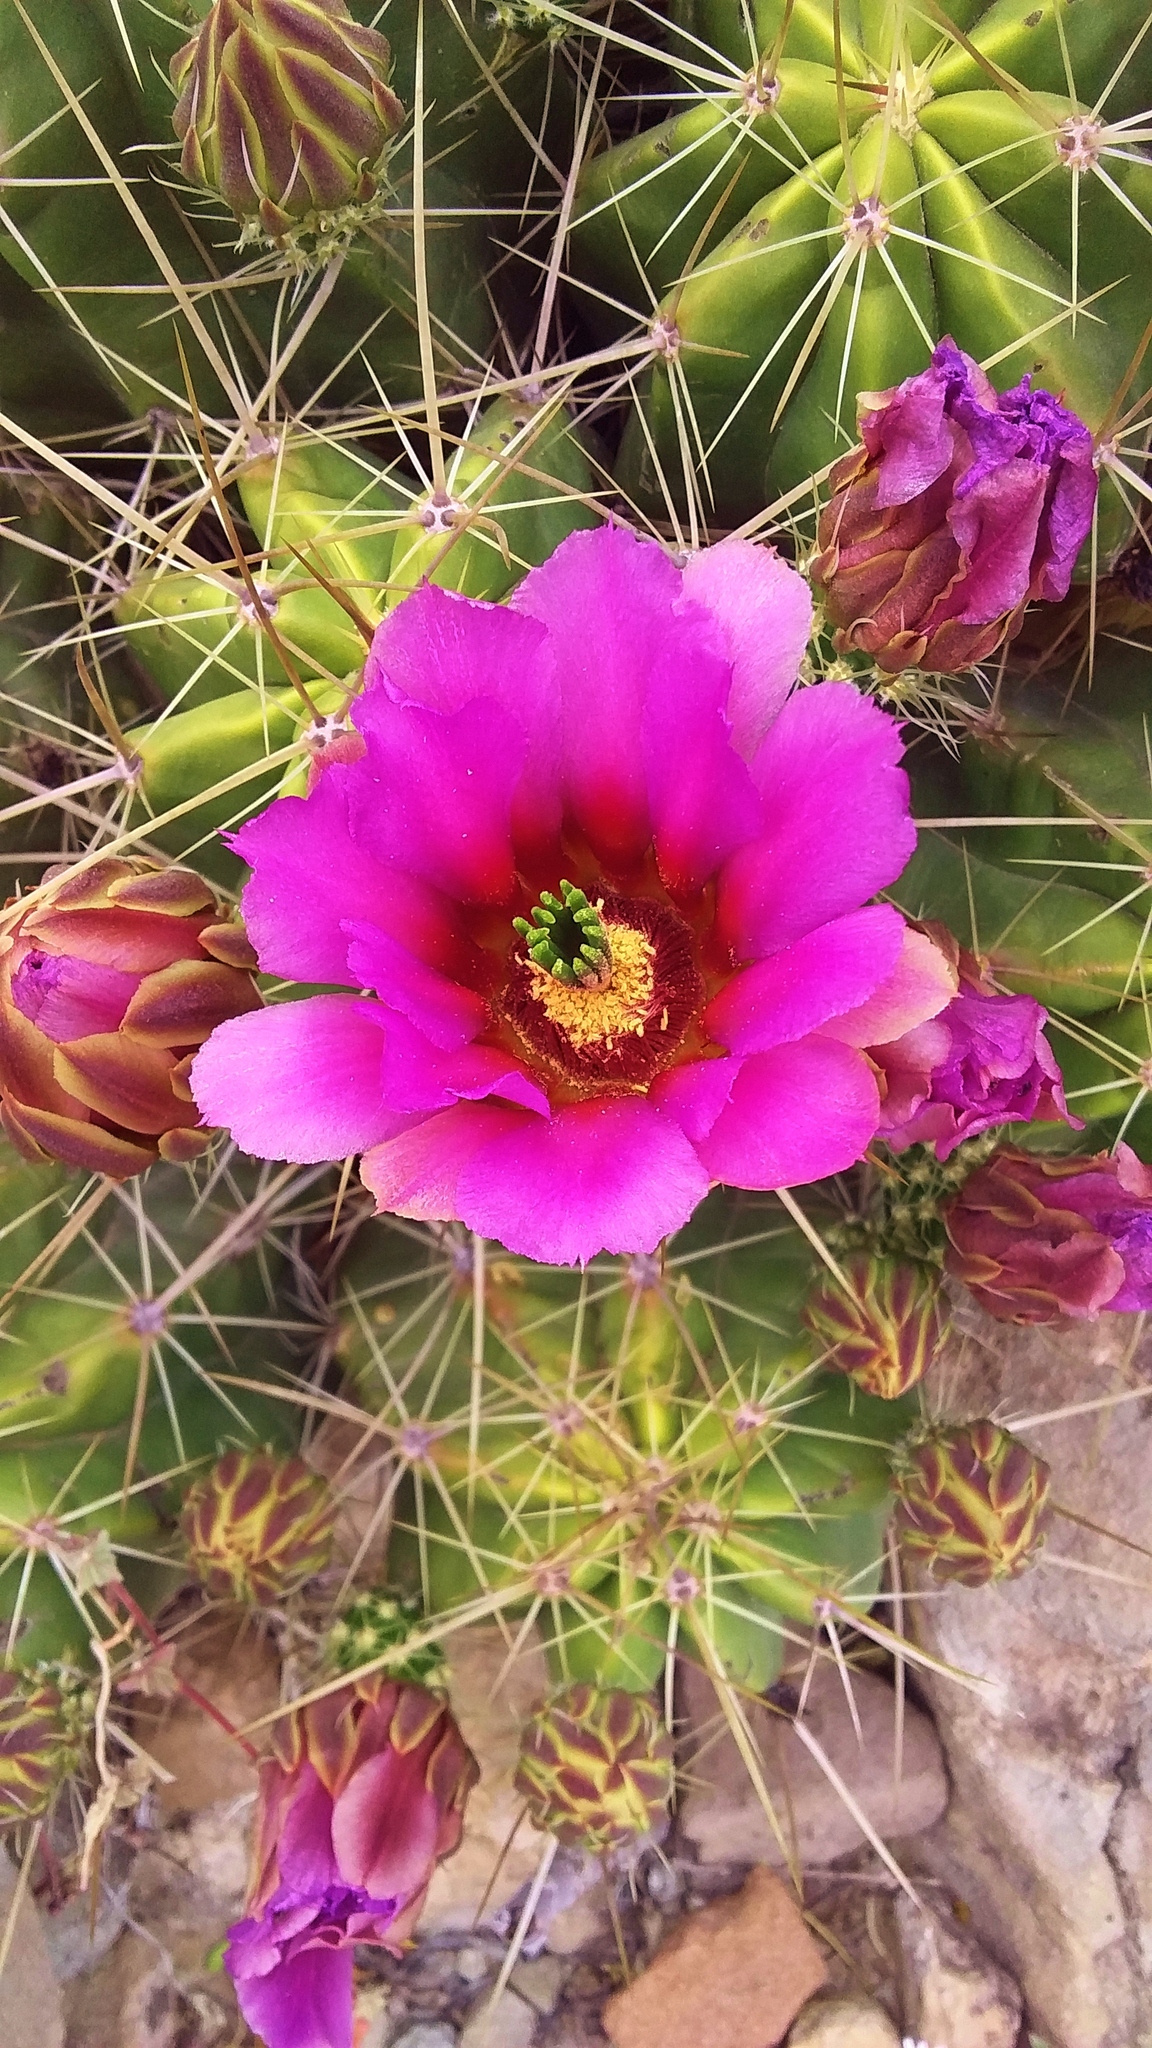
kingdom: Plantae
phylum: Tracheophyta
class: Magnoliopsida
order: Caryophyllales
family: Cactaceae
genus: Echinocereus
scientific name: Echinocereus enneacanthus
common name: Pitaya
